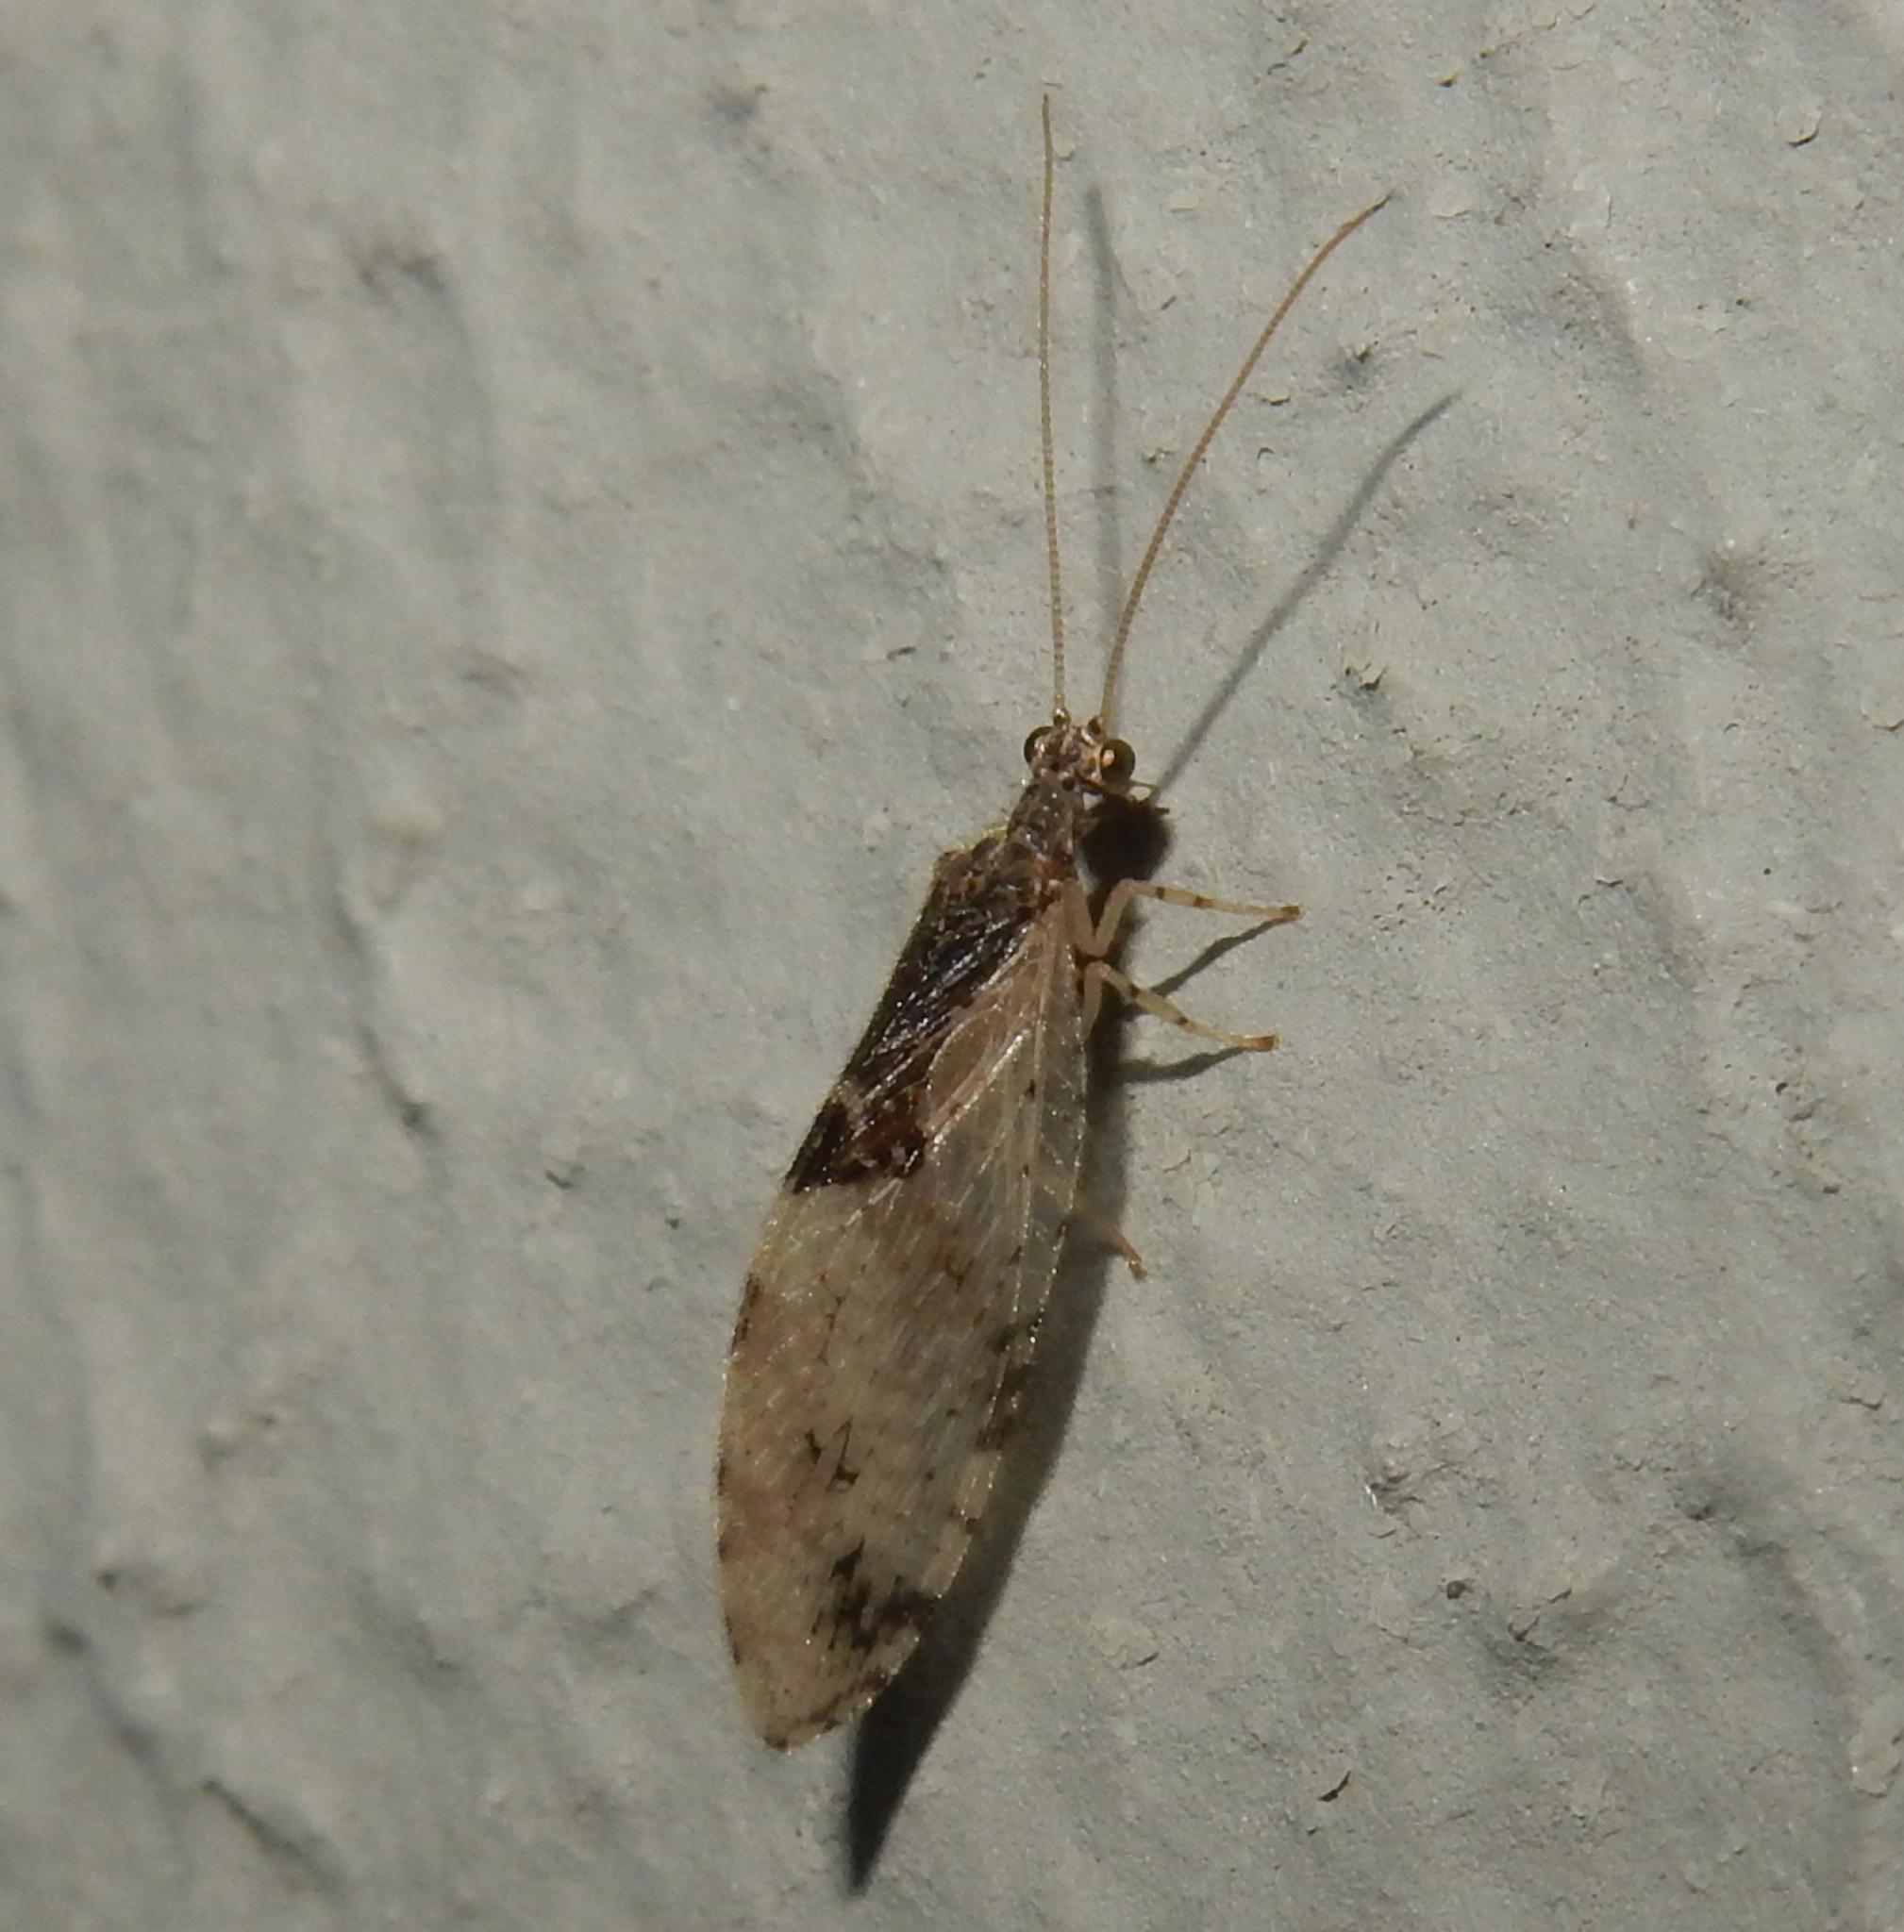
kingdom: Animalia
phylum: Arthropoda
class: Insecta
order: Neuroptera
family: Hemerobiidae
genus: Micromus
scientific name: Micromus sjostedti
